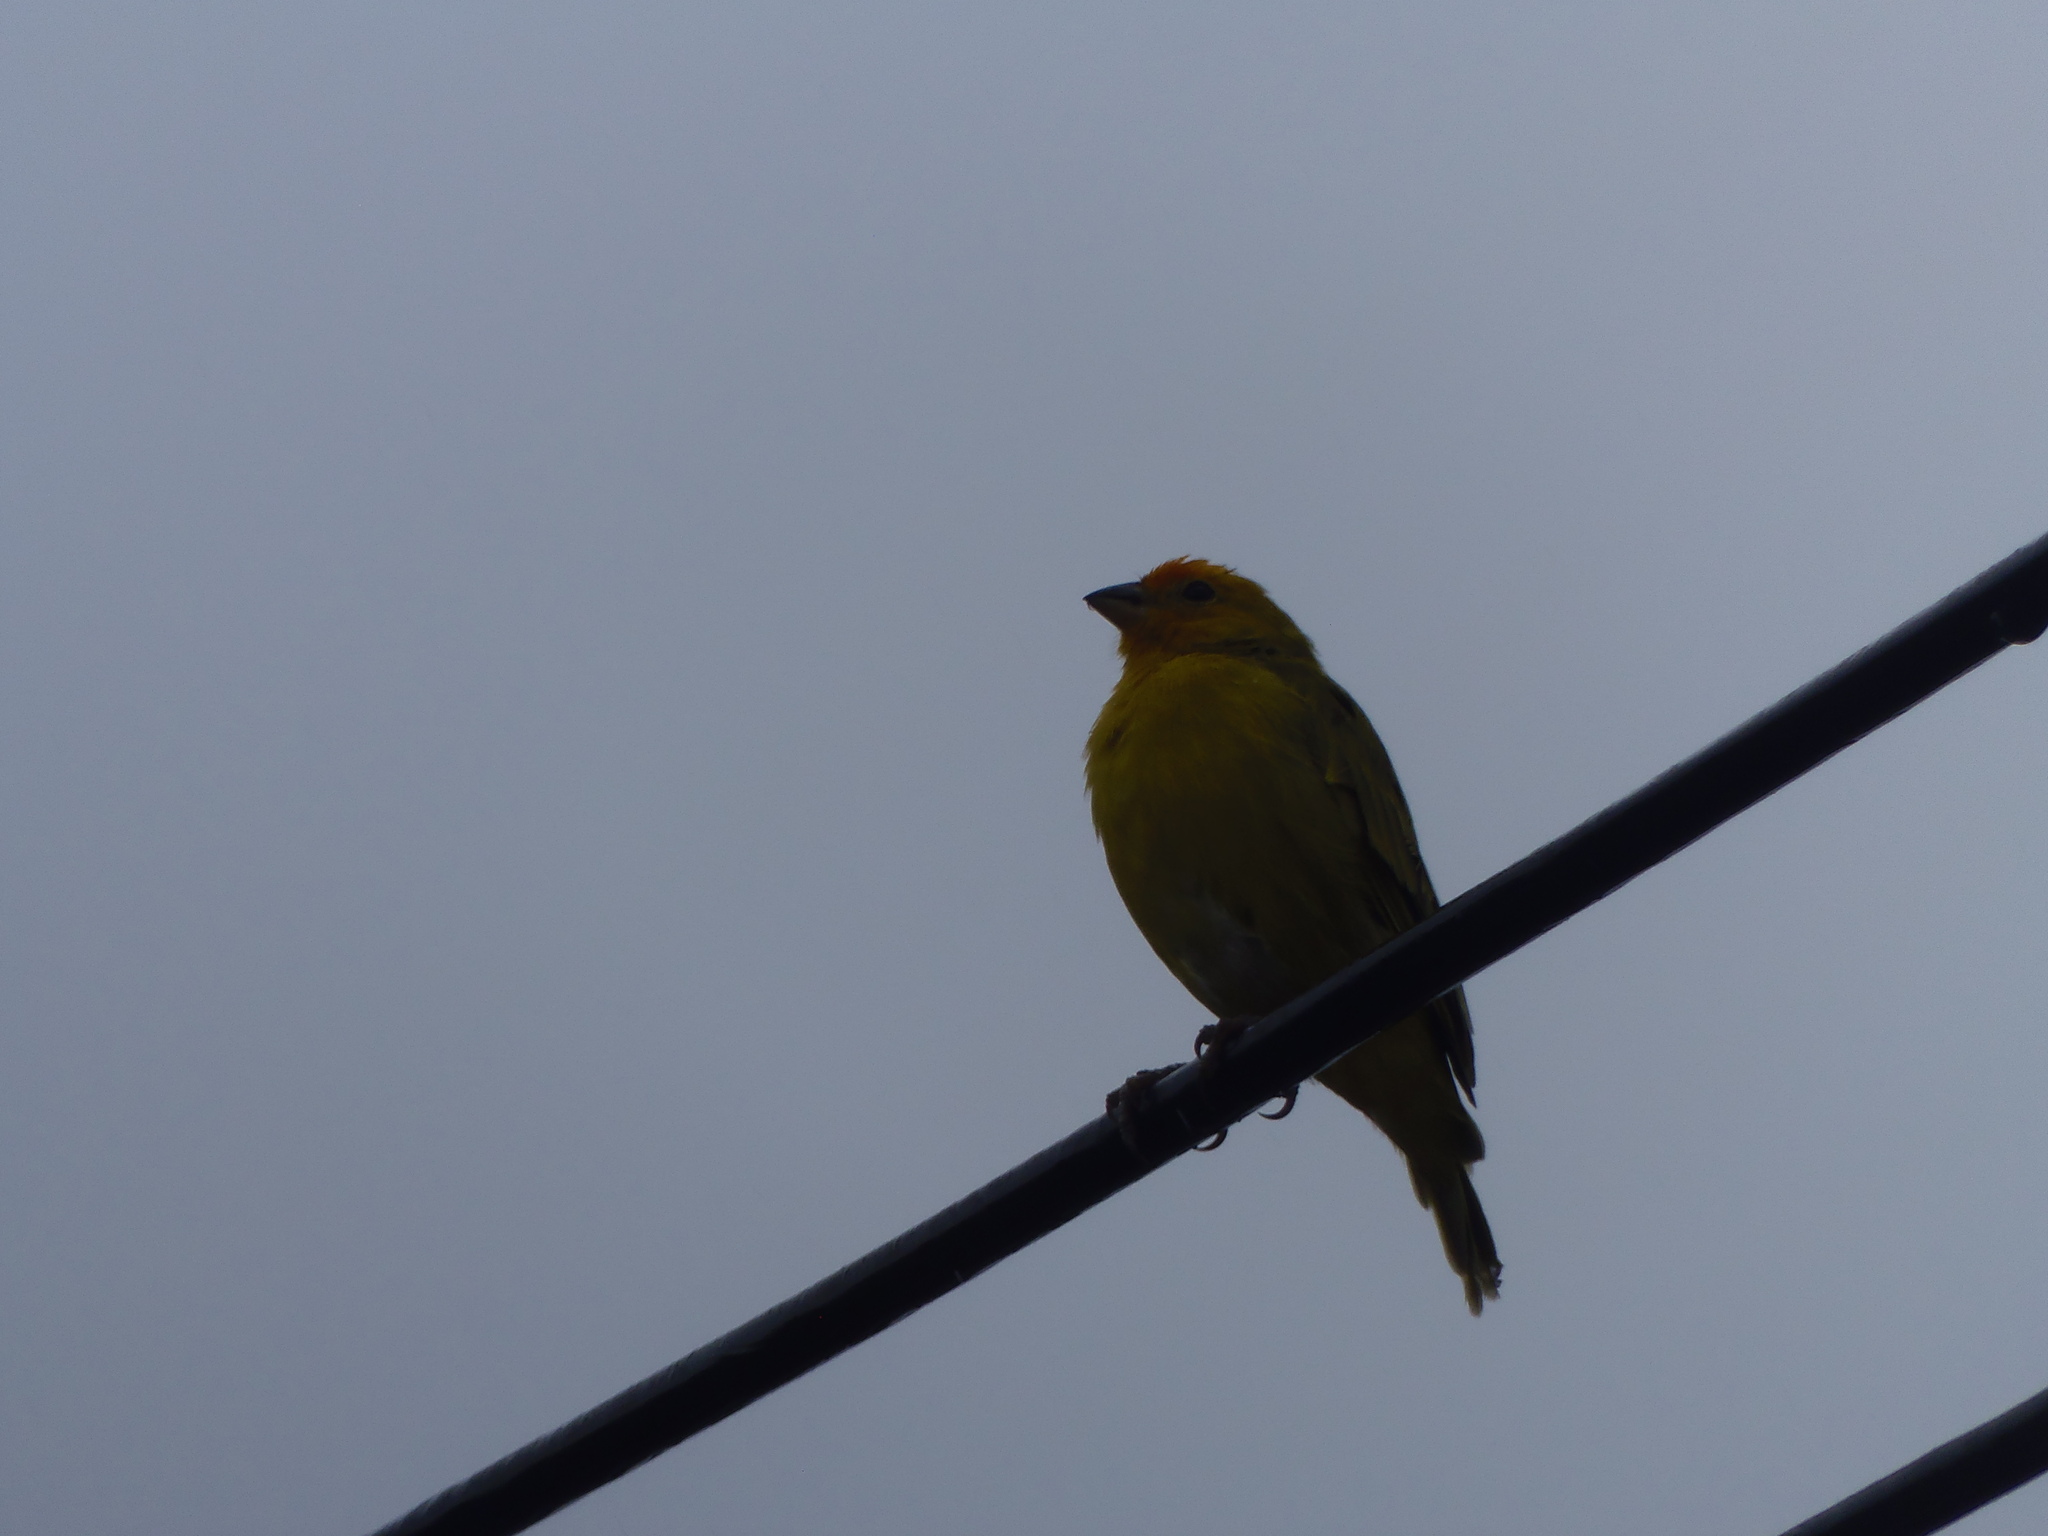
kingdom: Animalia
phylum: Chordata
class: Aves
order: Passeriformes
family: Thraupidae
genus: Sicalis
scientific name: Sicalis flaveola
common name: Saffron finch
